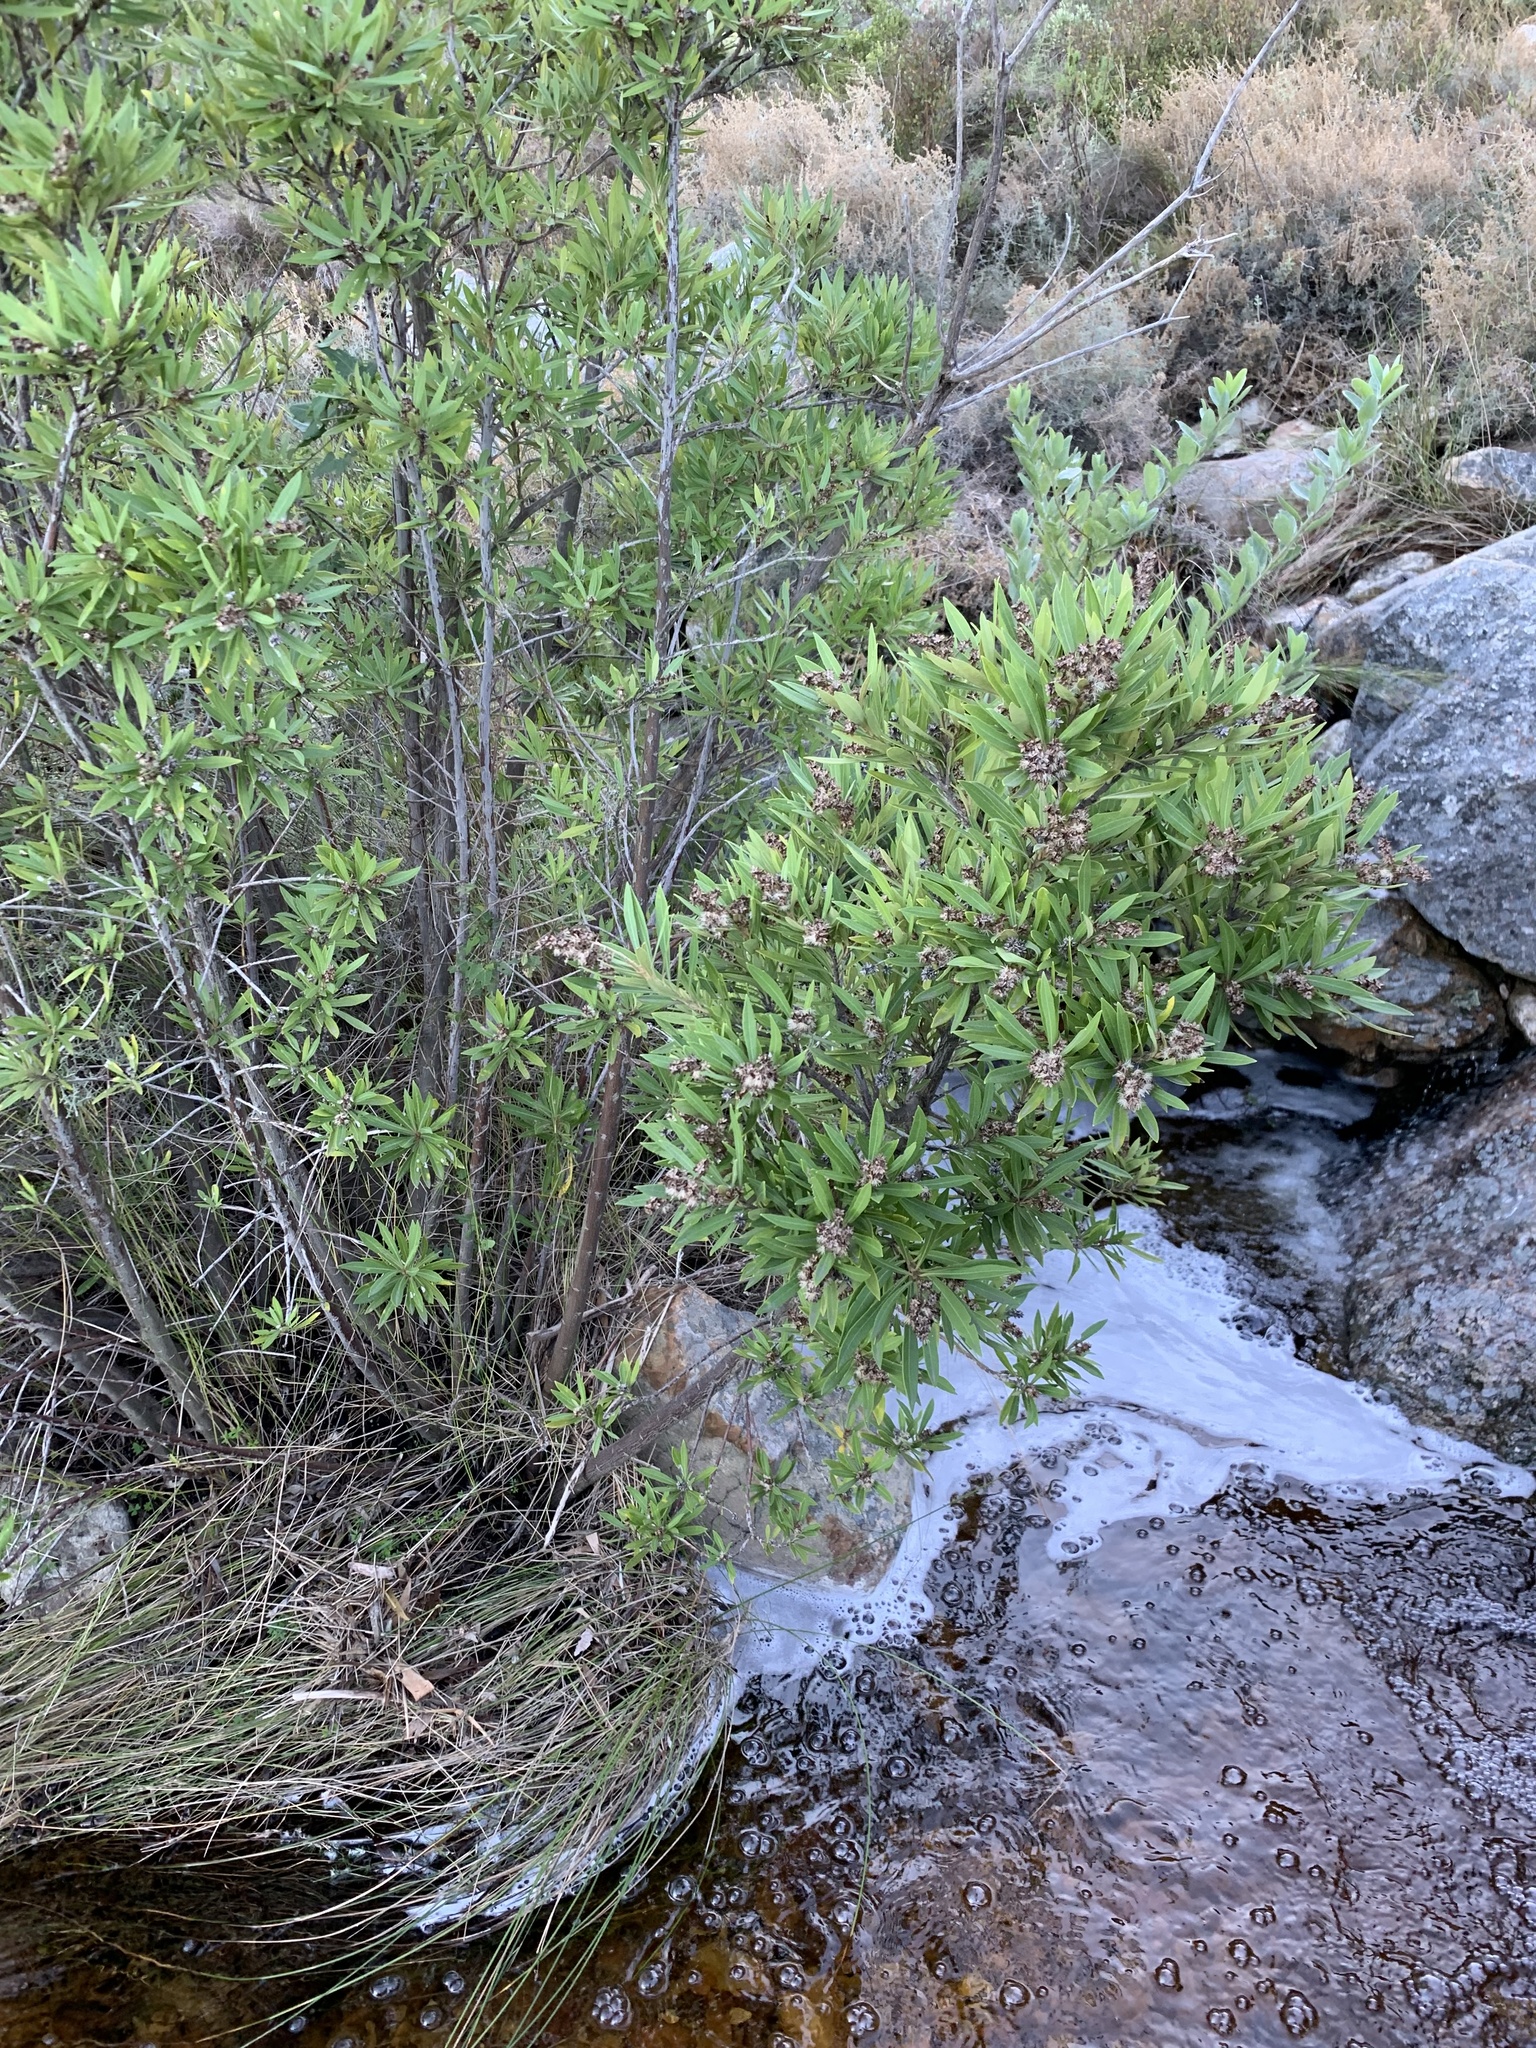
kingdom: Plantae
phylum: Tracheophyta
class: Magnoliopsida
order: Asterales
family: Asteraceae
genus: Brachylaena
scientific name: Brachylaena neriifolia
